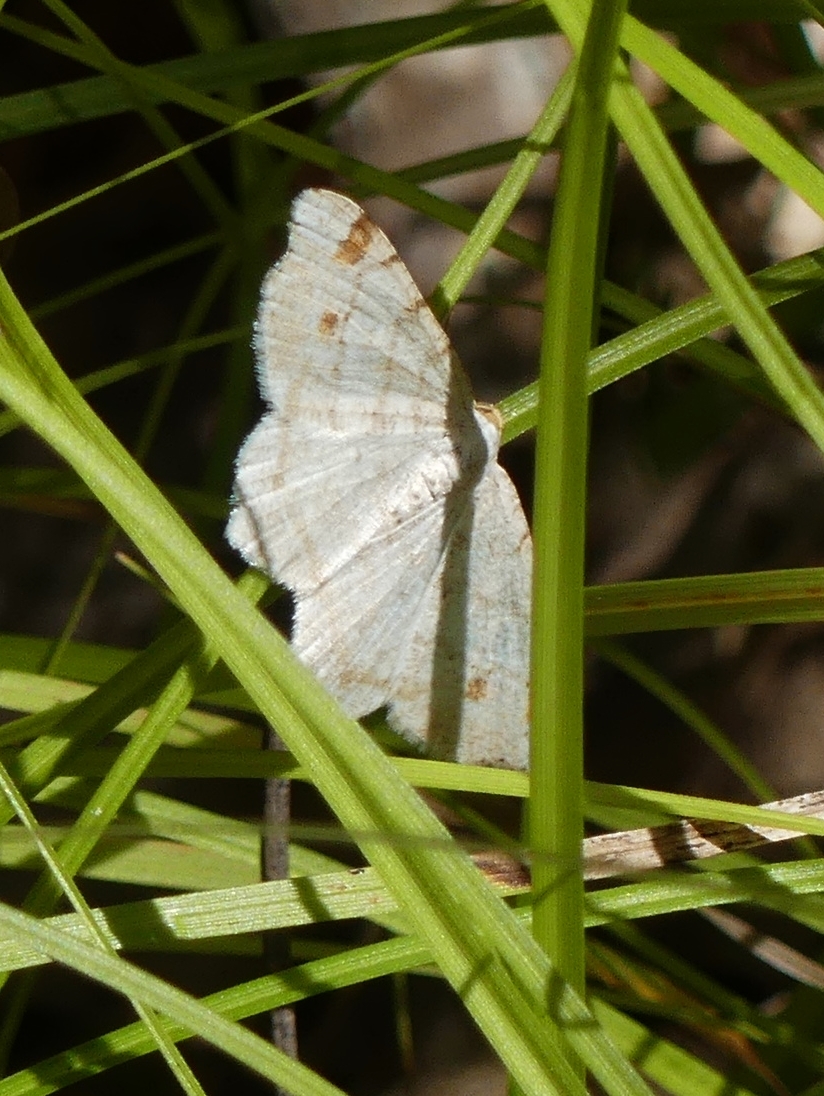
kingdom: Animalia
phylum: Arthropoda
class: Insecta
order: Lepidoptera
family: Geometridae
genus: Macaria
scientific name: Macaria pustularia
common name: Lesser maple spanworm moth
